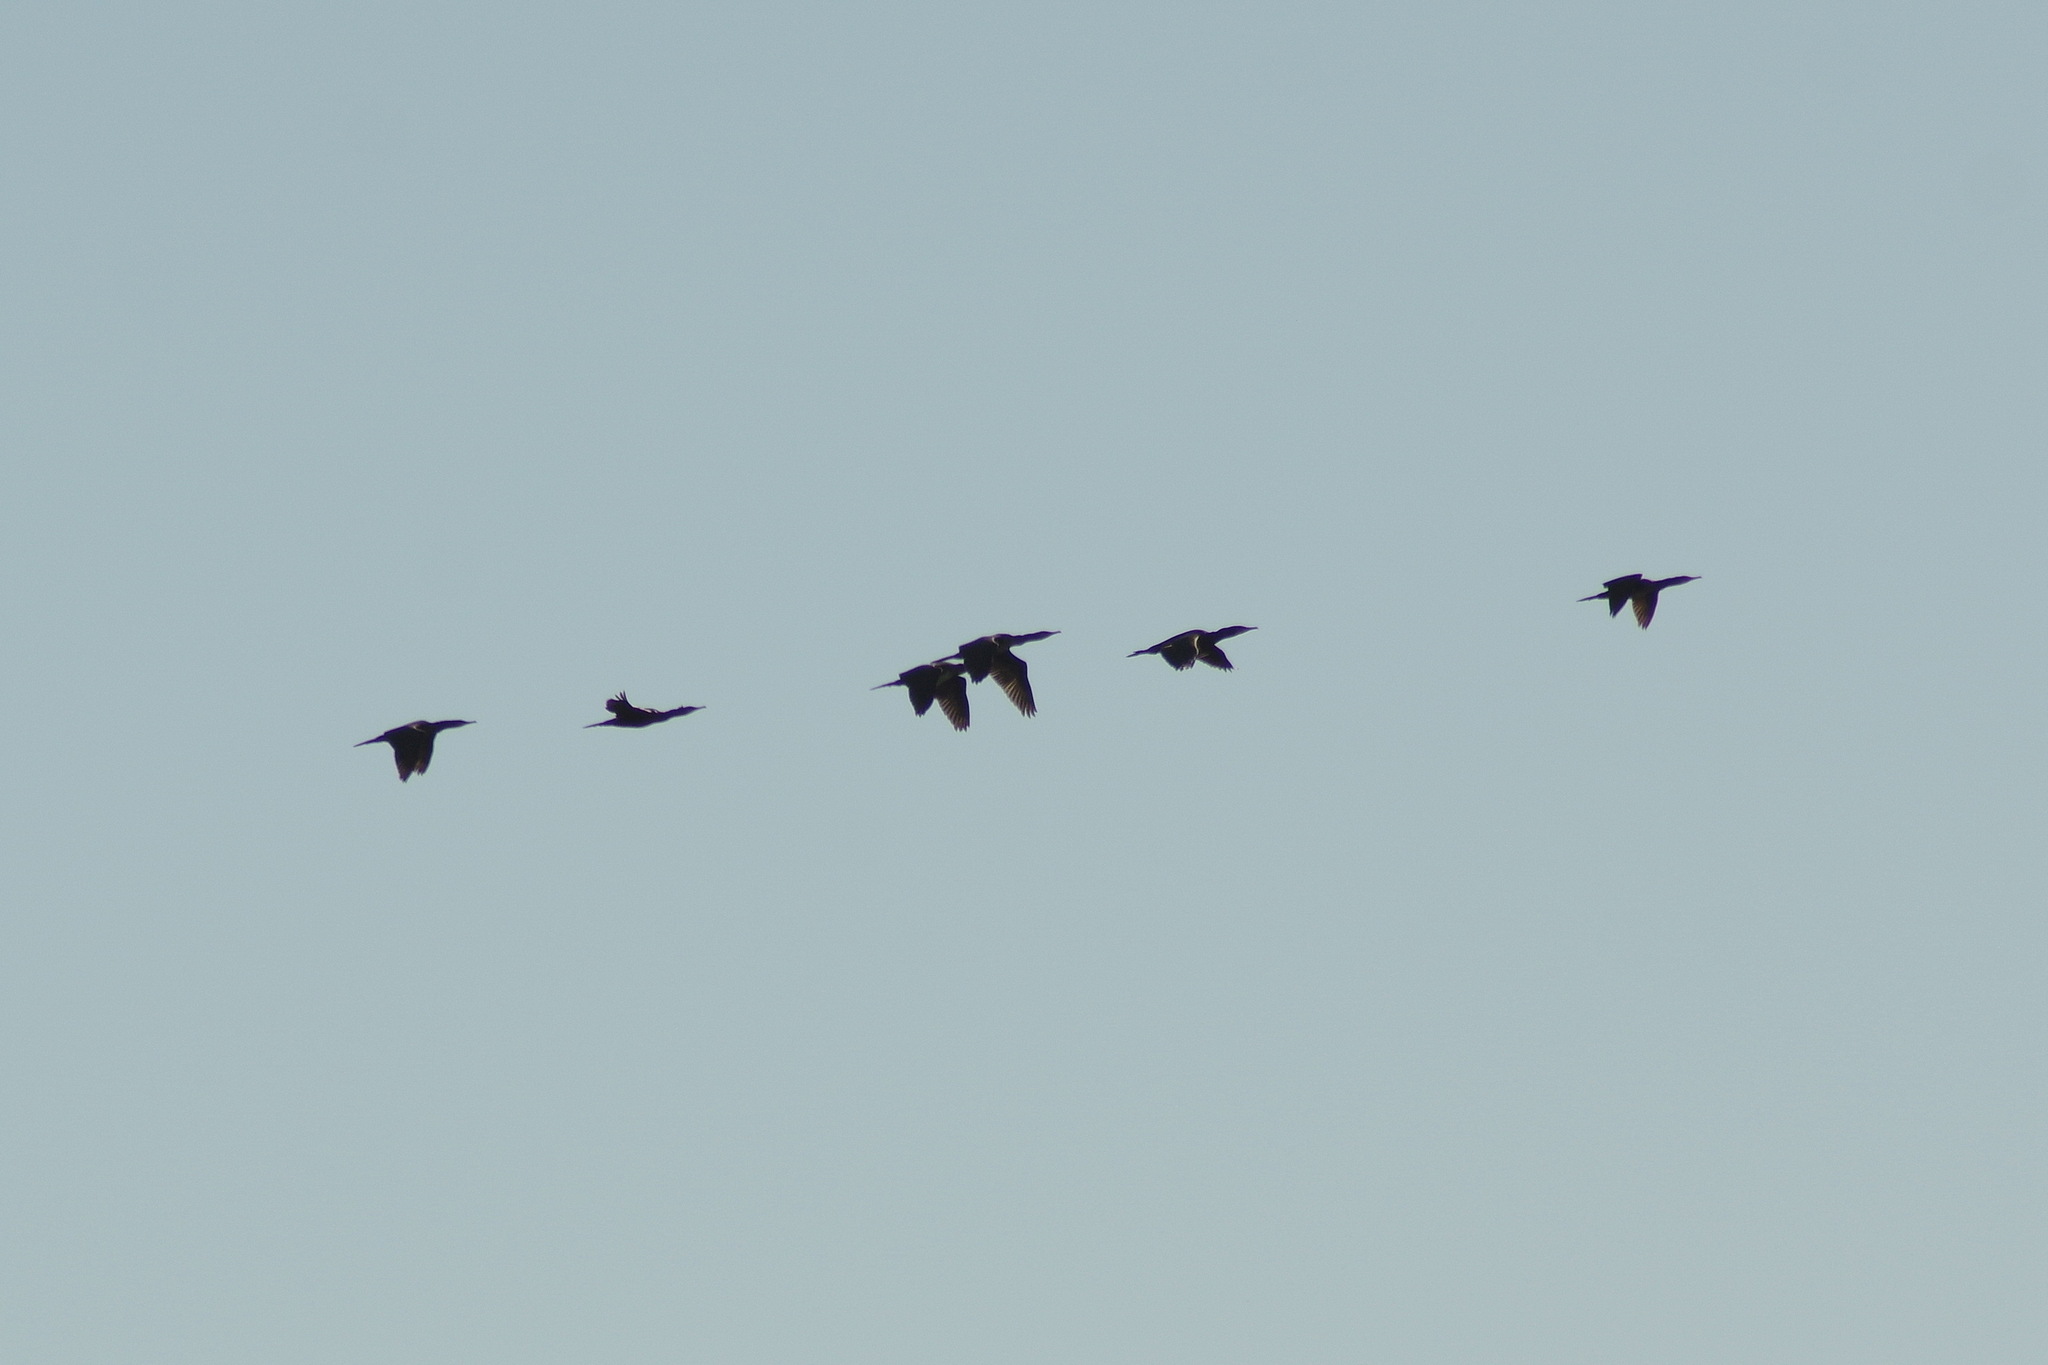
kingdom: Animalia
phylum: Chordata
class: Aves
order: Suliformes
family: Phalacrocoracidae
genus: Phalacrocorax
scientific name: Phalacrocorax carbo
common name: Great cormorant
